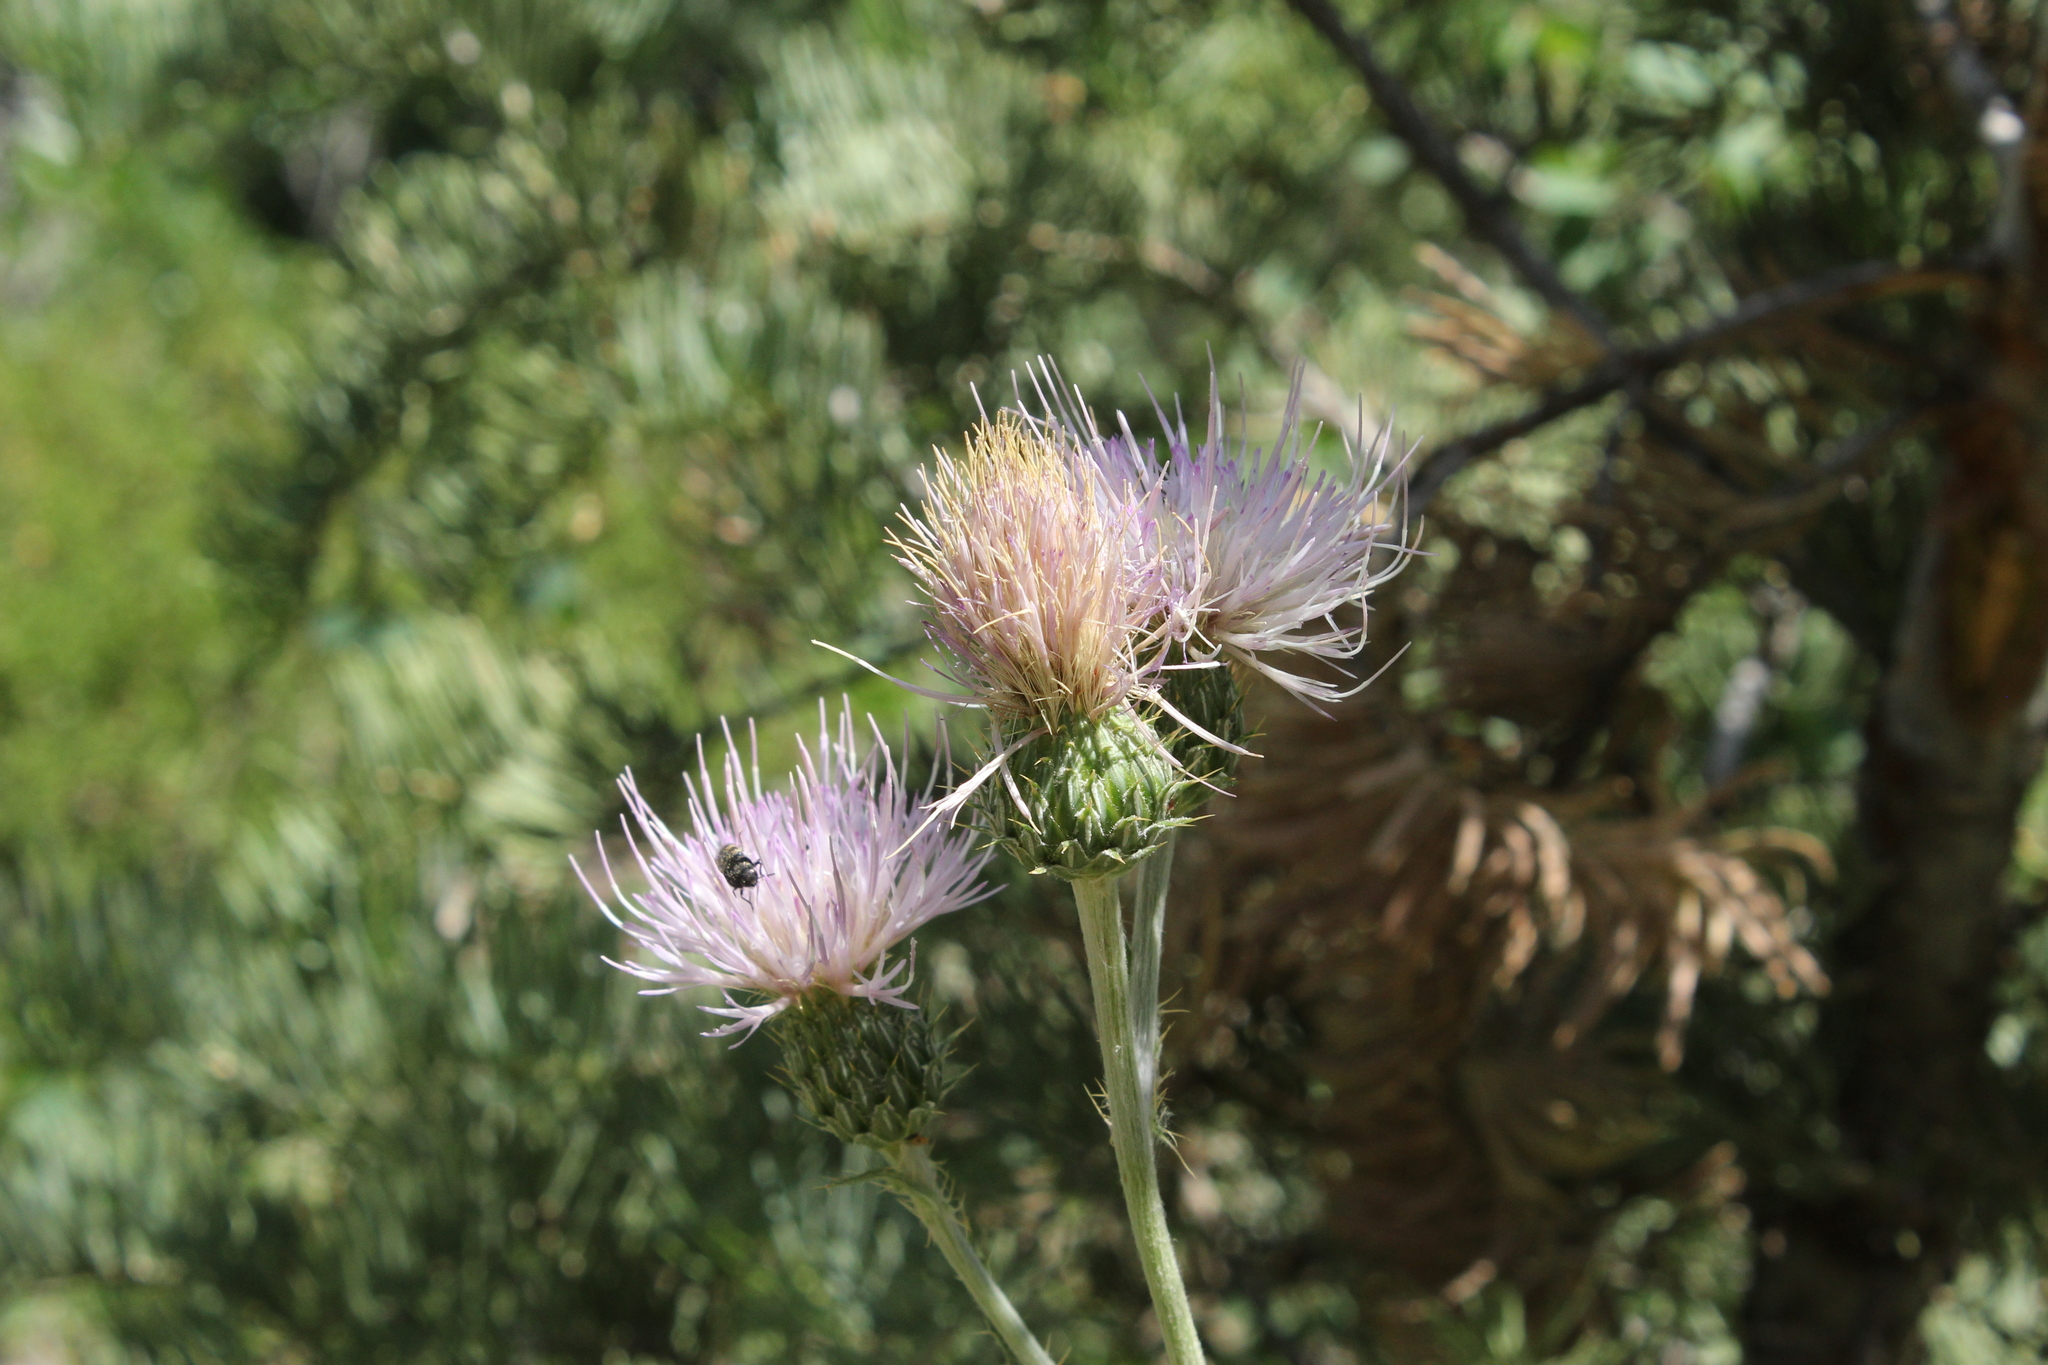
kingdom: Plantae
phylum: Tracheophyta
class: Magnoliopsida
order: Asterales
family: Asteraceae
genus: Cirsium
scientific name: Cirsium undulatum
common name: Pasture thistle
